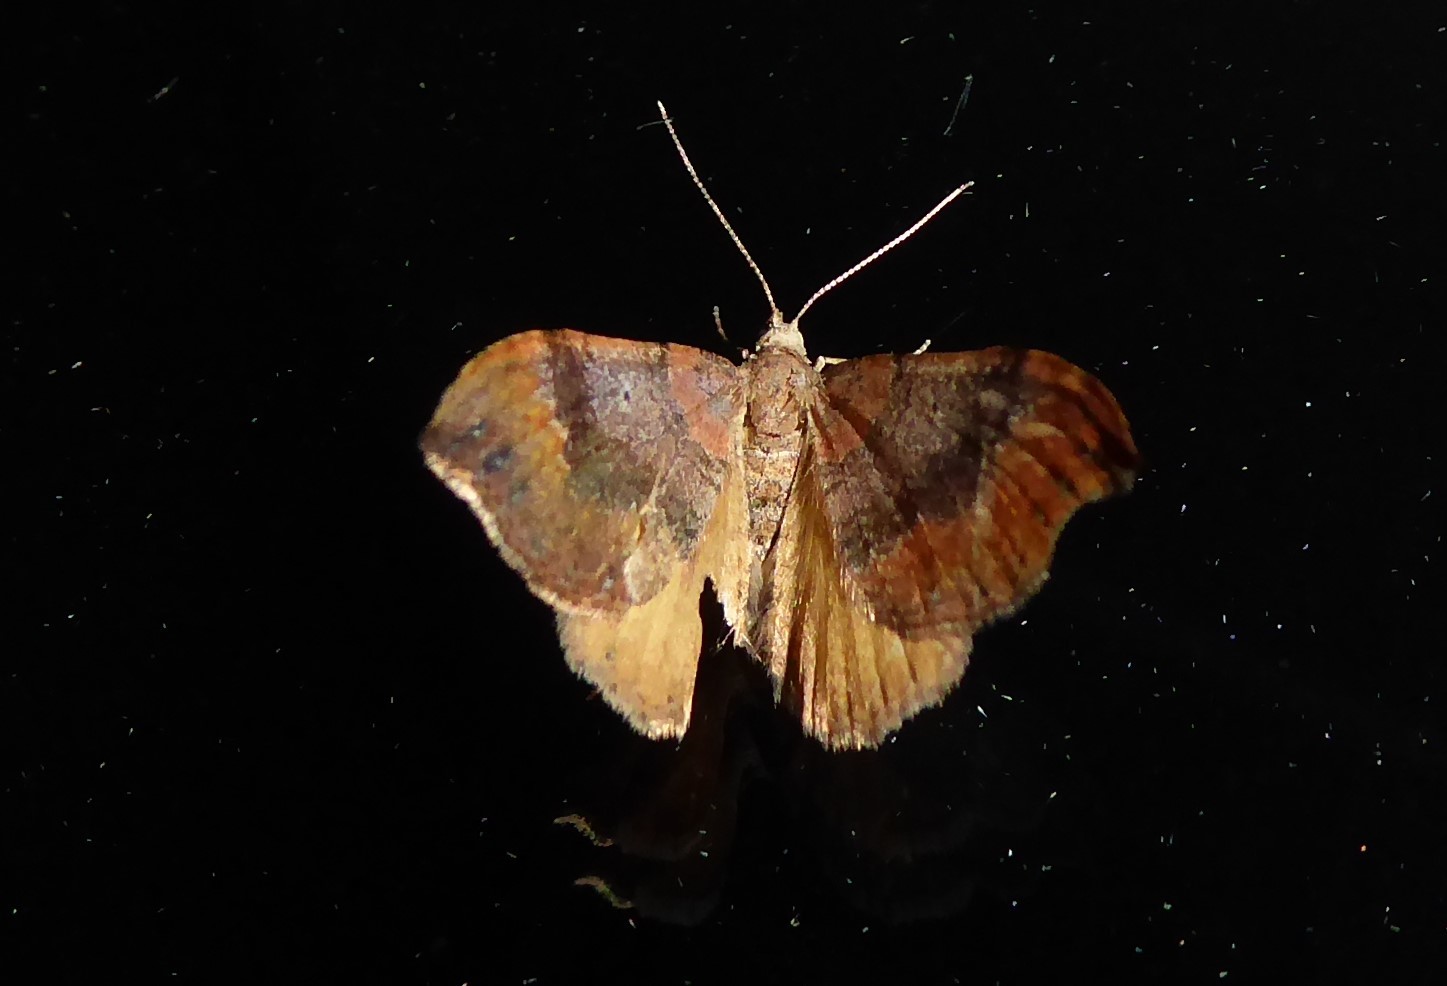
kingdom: Animalia
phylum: Arthropoda
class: Insecta
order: Lepidoptera
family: Geometridae
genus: Homodotis
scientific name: Homodotis megaspilata
